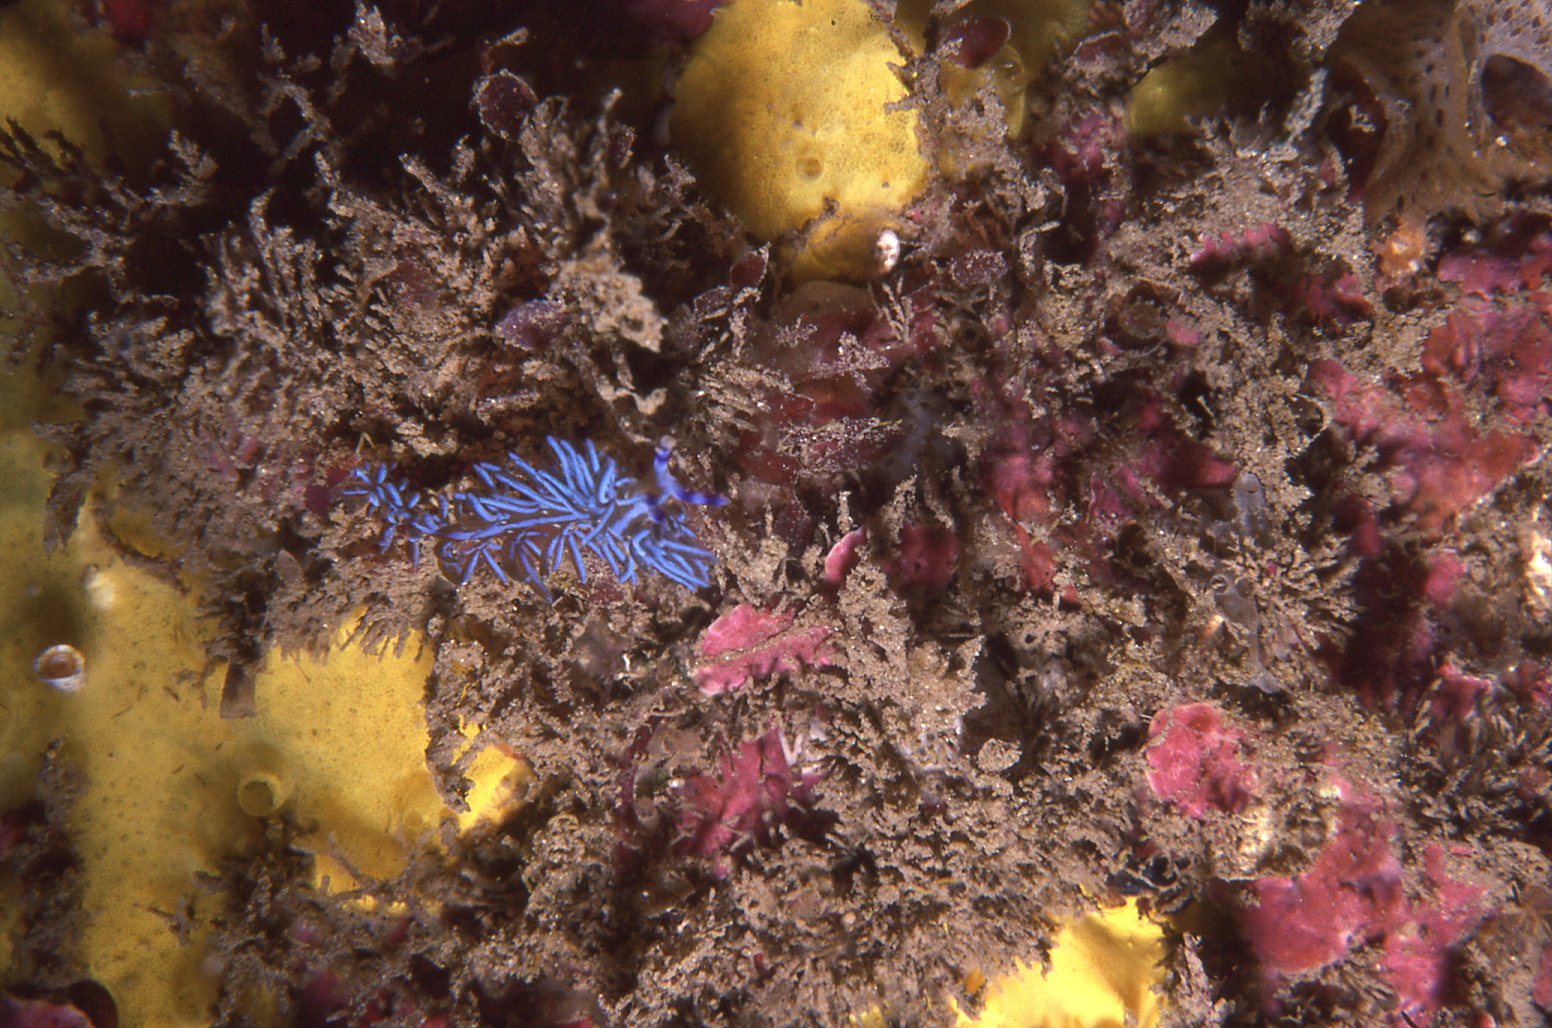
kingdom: Animalia
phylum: Mollusca
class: Gastropoda
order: Nudibranchia
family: Facelinidae
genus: Pteraeolidia
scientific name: Pteraeolidia ianthina
